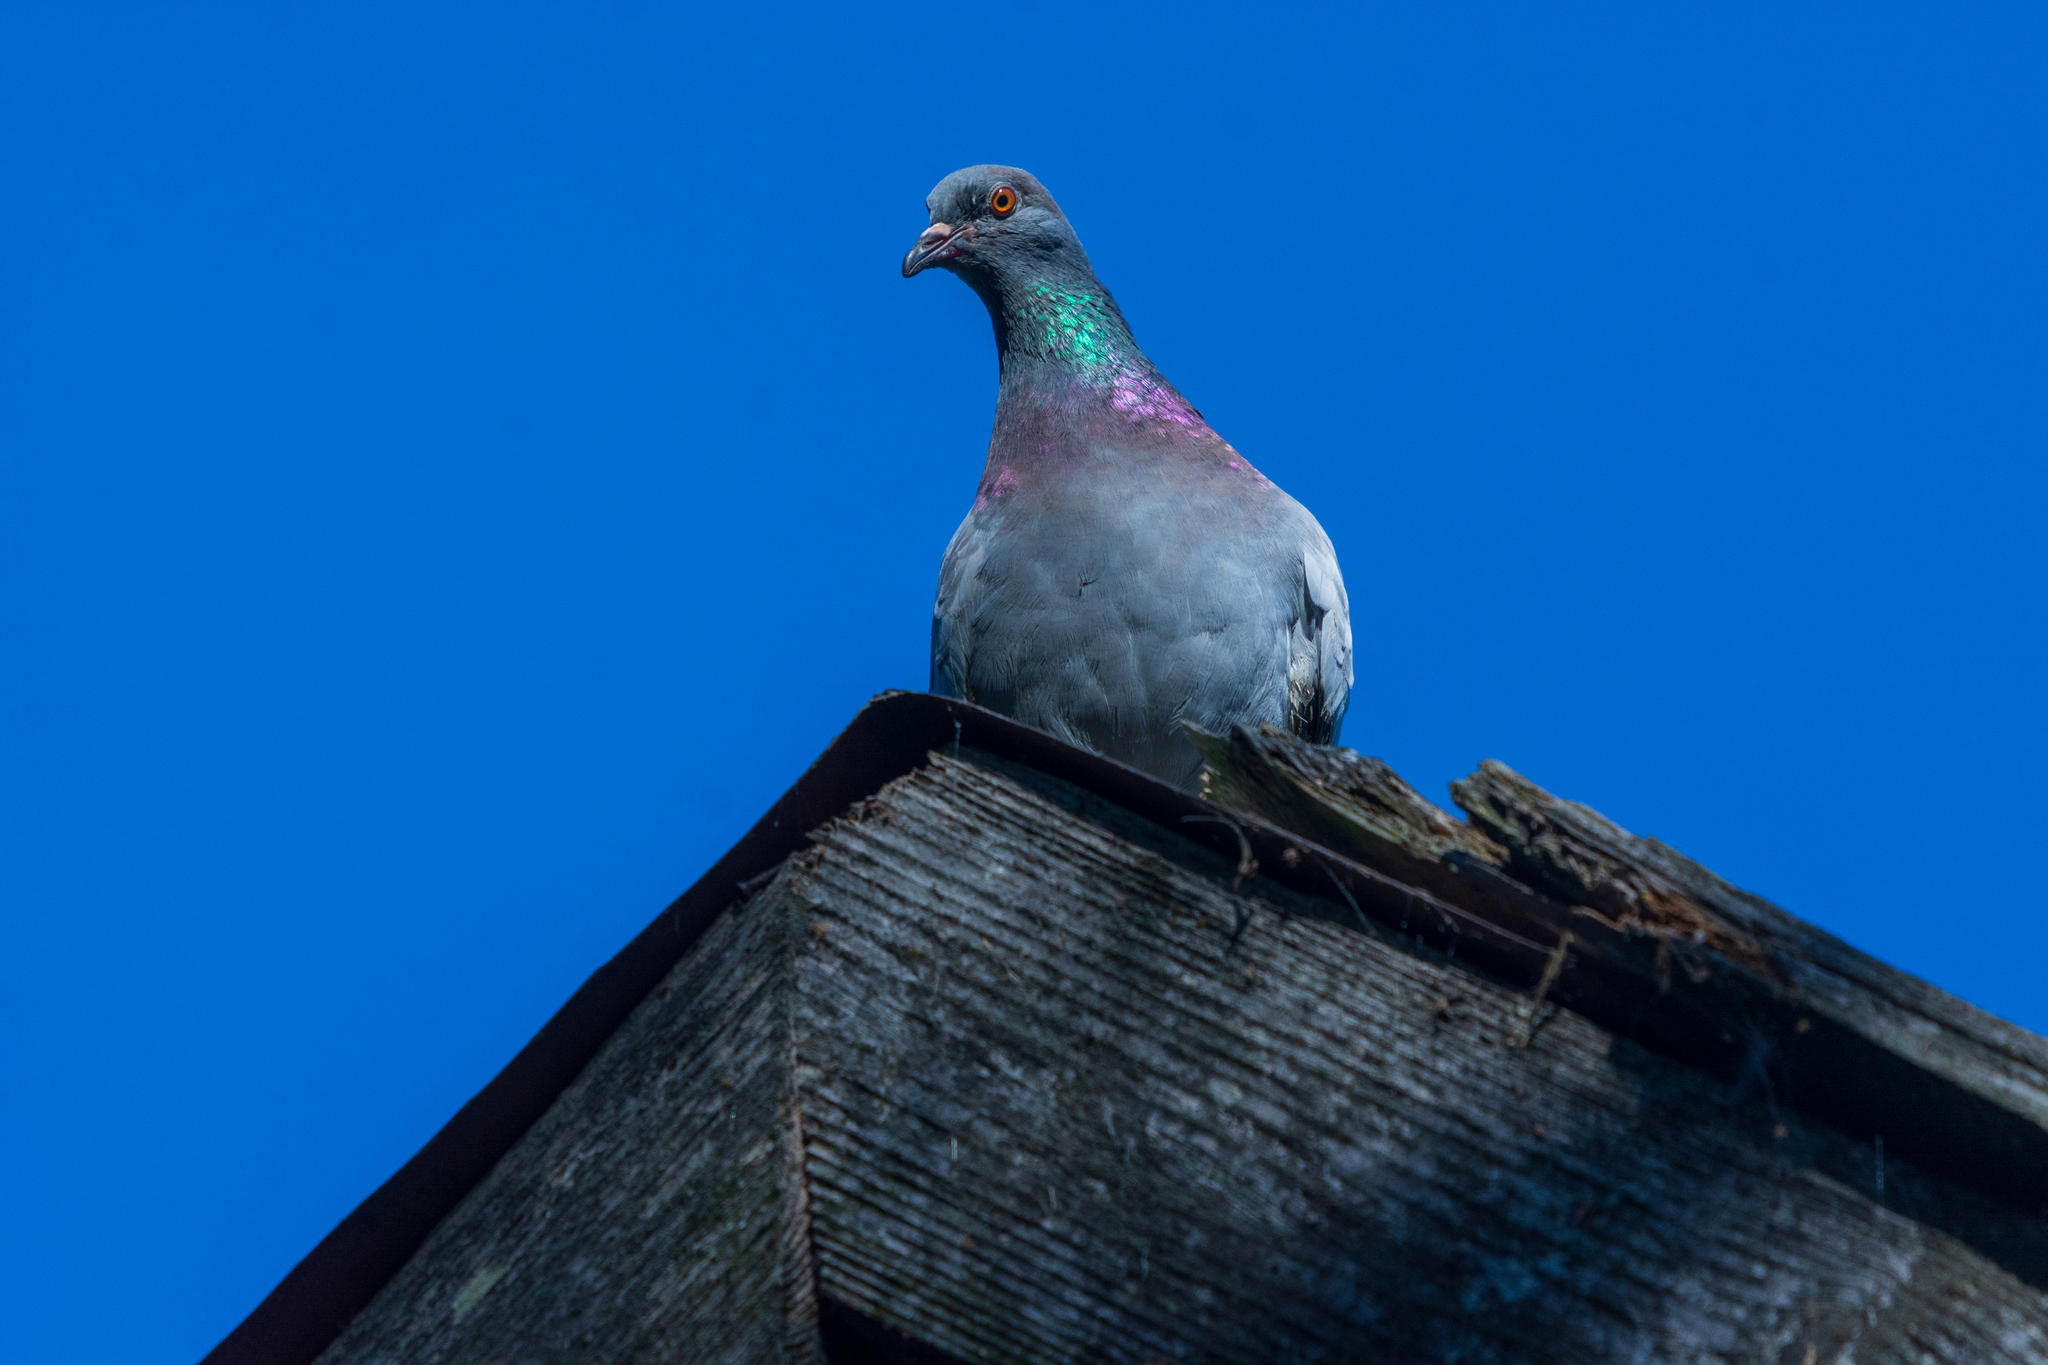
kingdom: Animalia
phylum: Chordata
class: Aves
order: Columbiformes
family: Columbidae
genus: Columba
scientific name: Columba livia
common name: Rock pigeon
